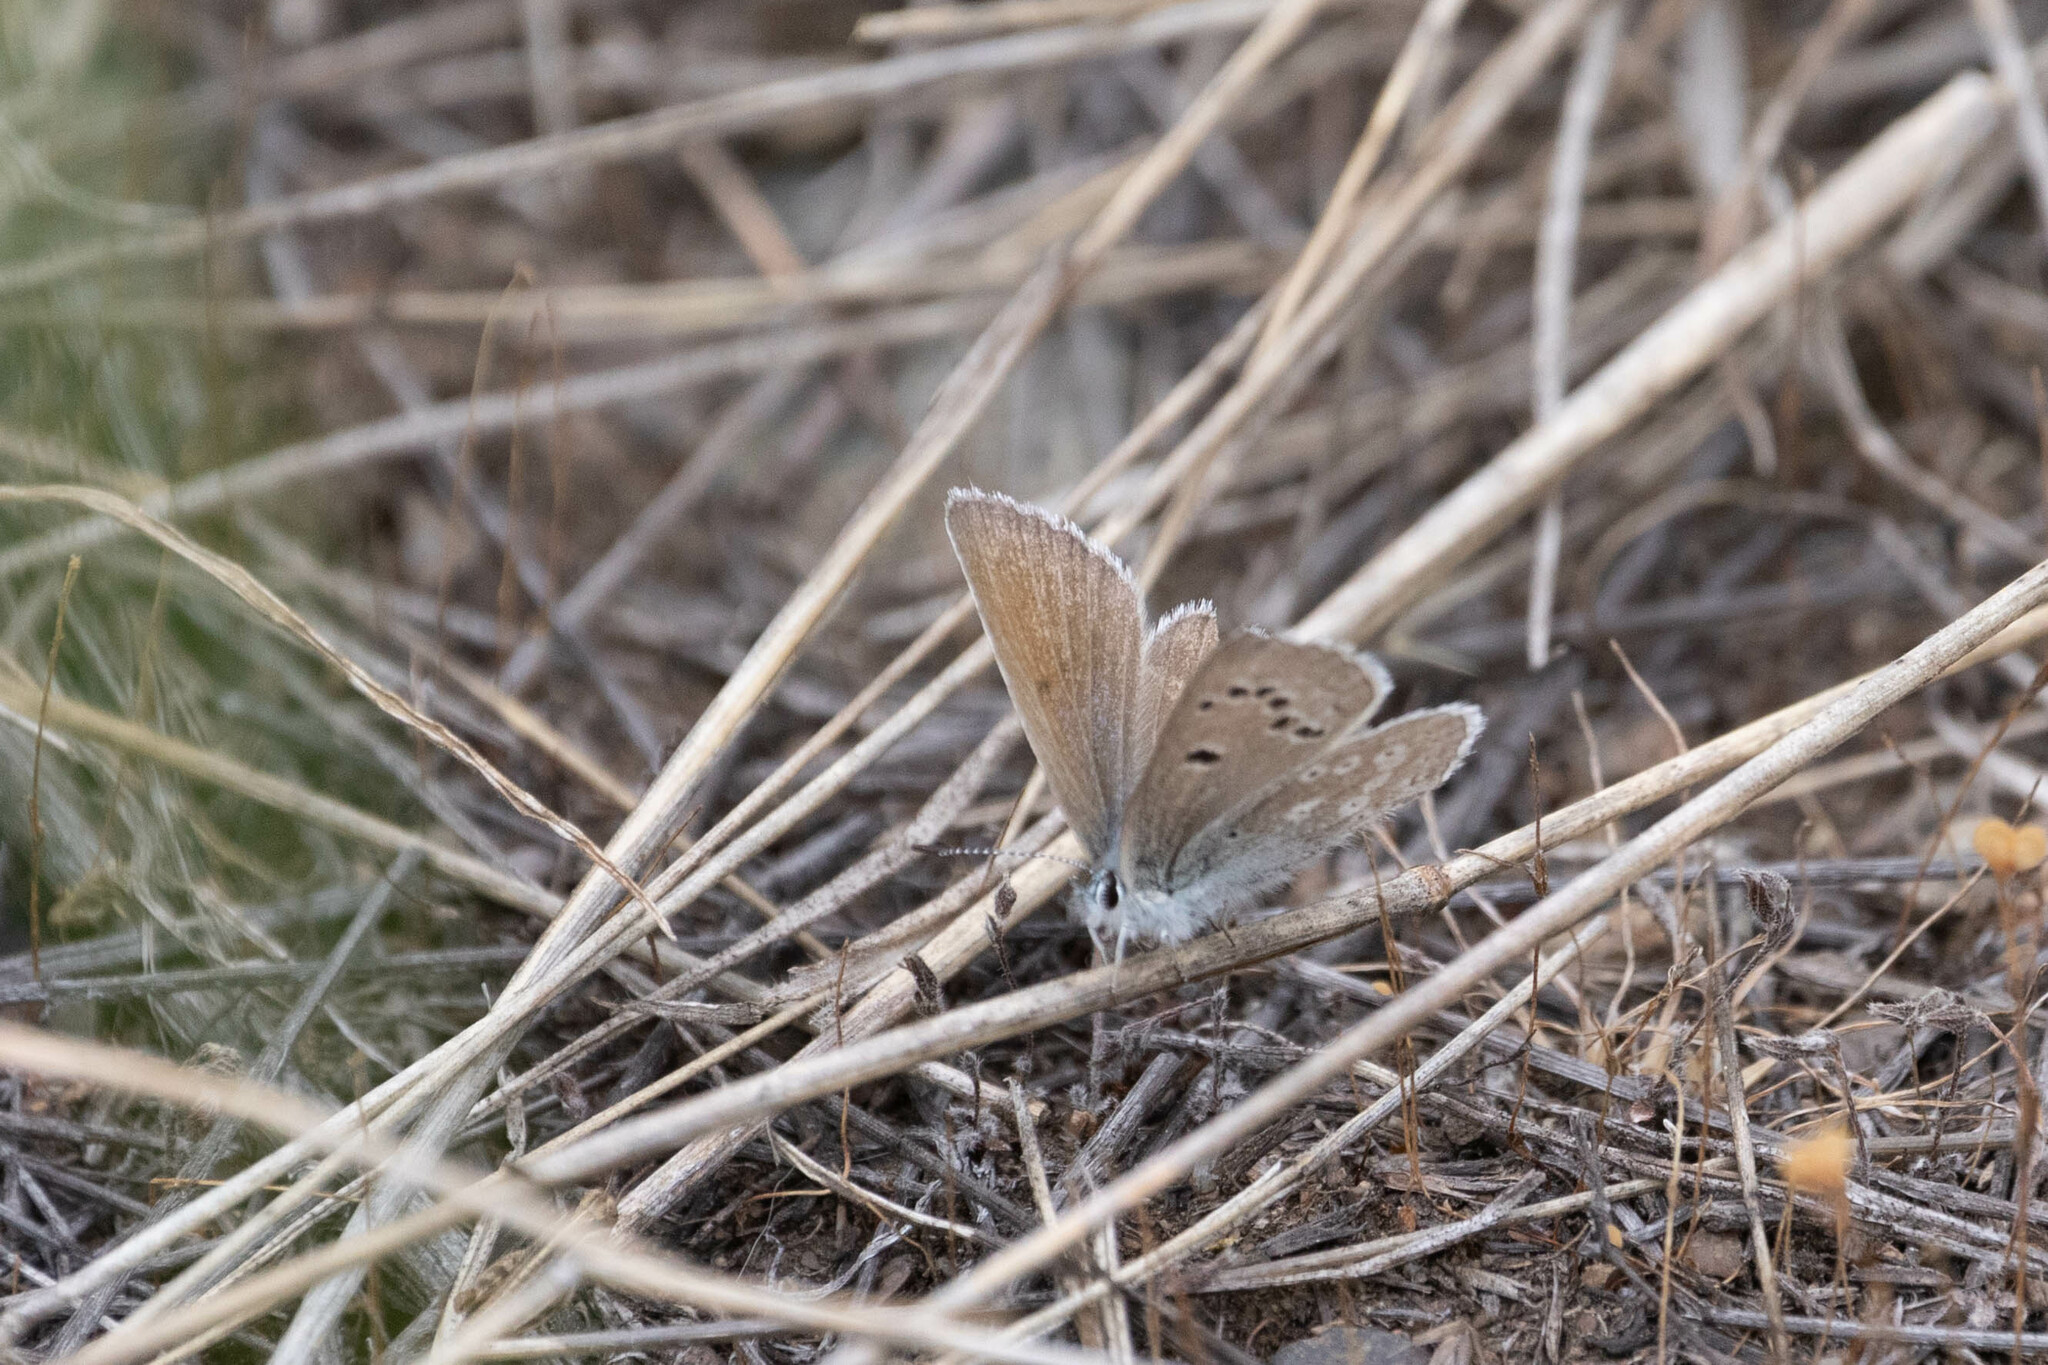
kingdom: Animalia
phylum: Arthropoda
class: Insecta
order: Lepidoptera
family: Lycaenidae
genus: Icaricia
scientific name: Icaricia icarioides
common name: Boisduval's blue
